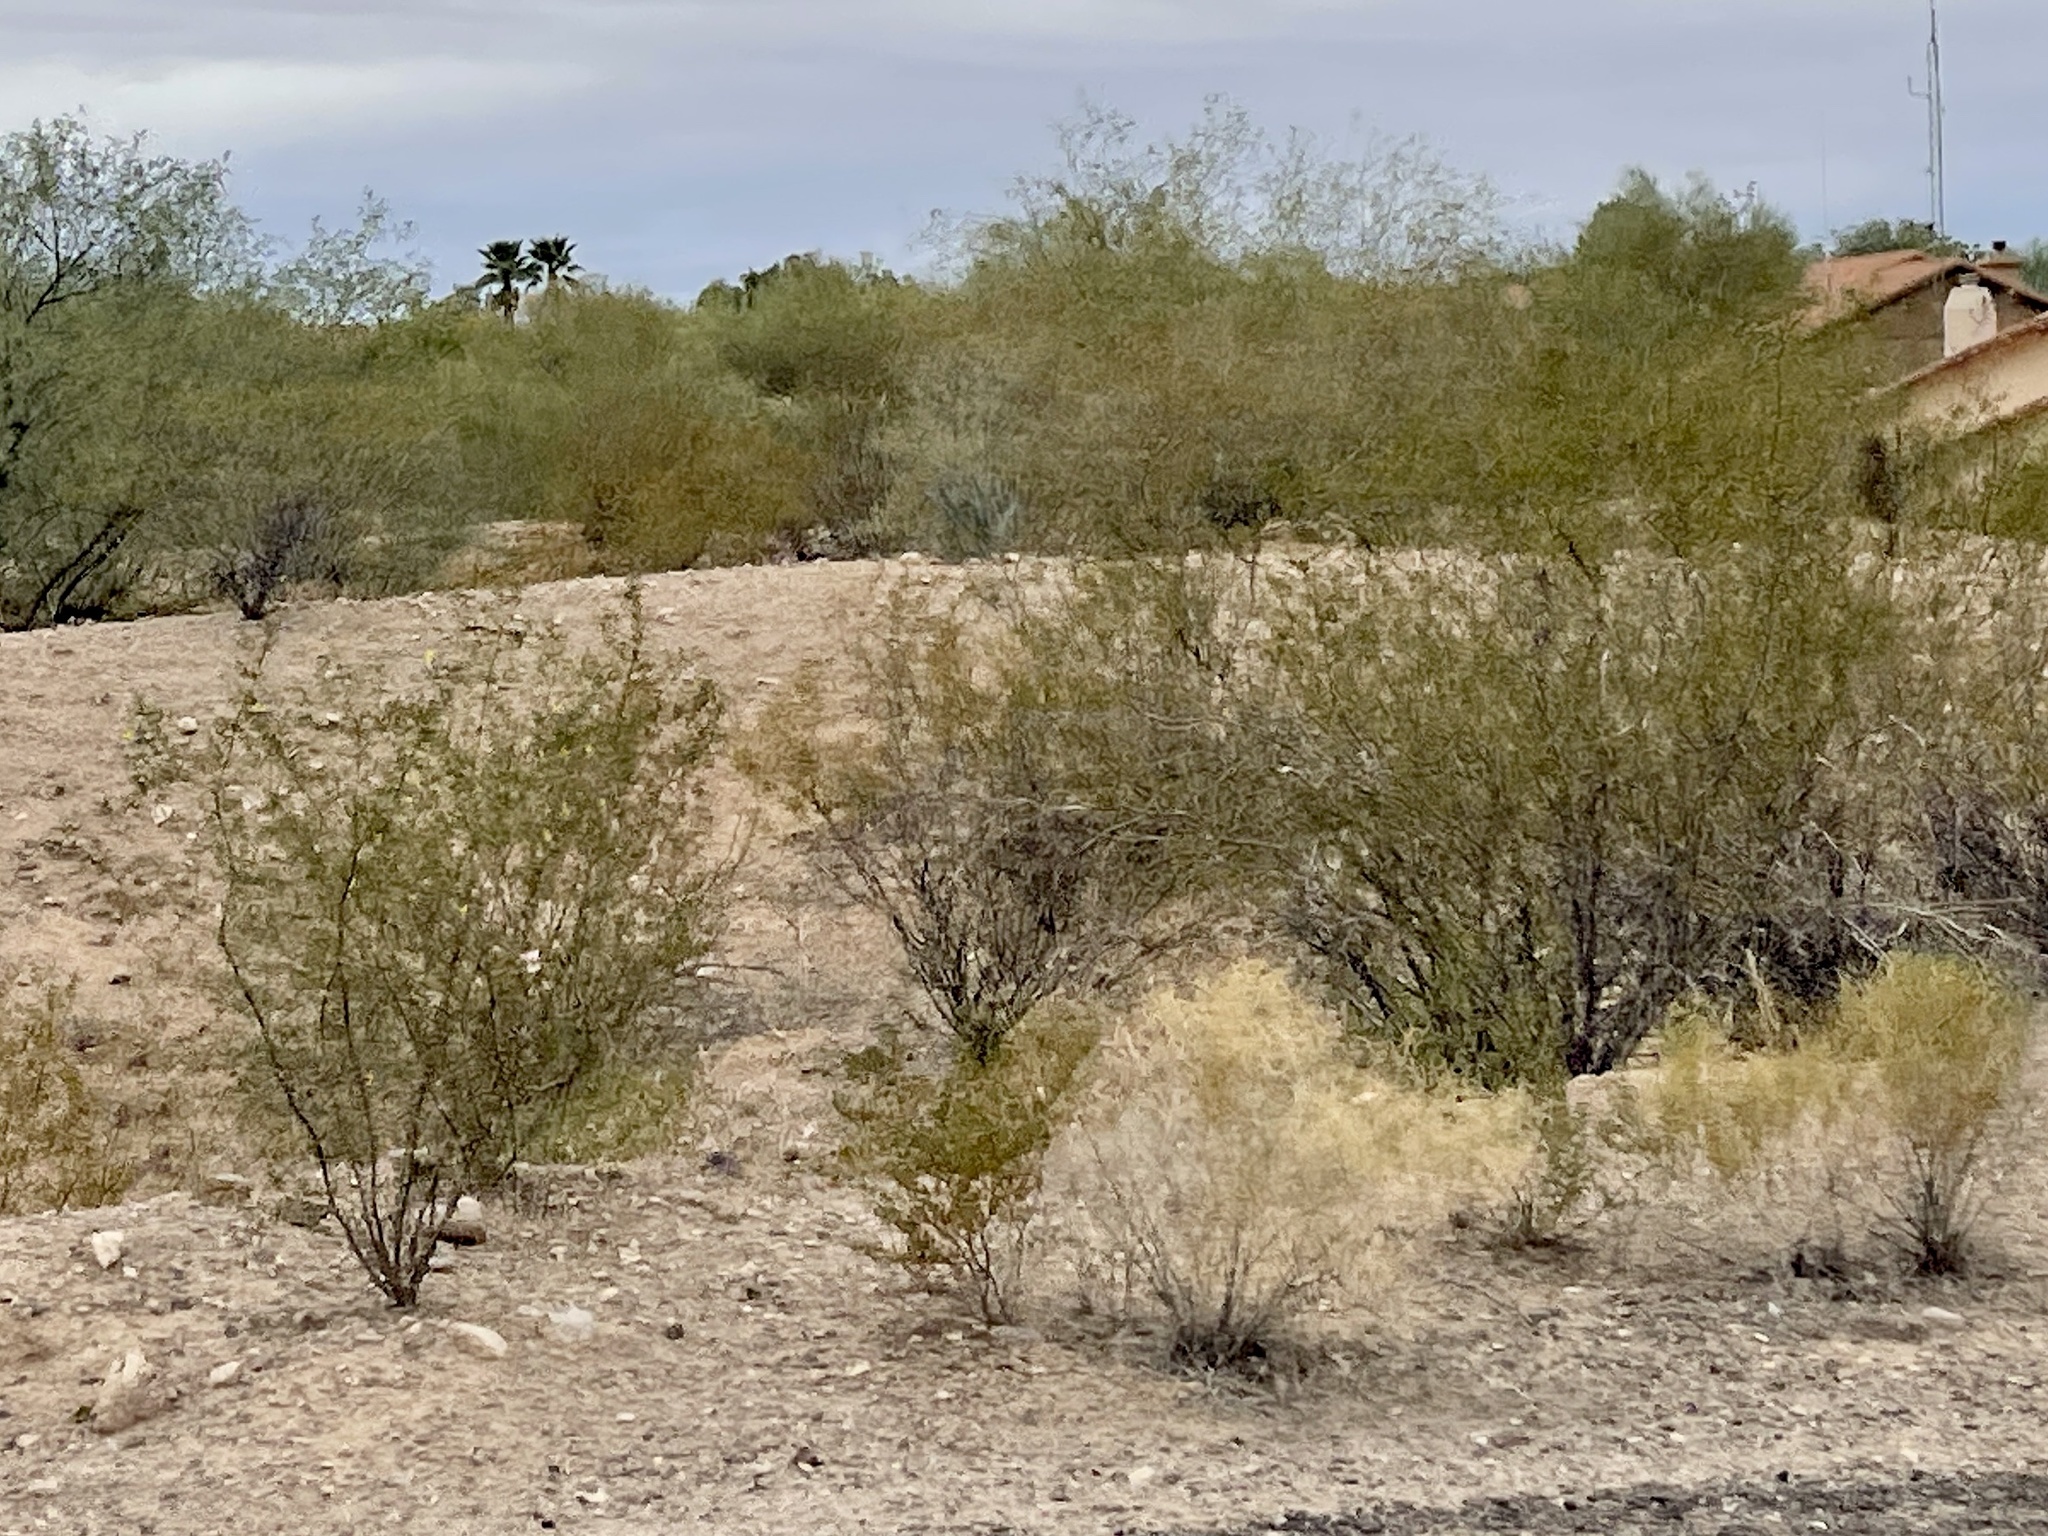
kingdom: Plantae
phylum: Tracheophyta
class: Magnoliopsida
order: Zygophyllales
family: Zygophyllaceae
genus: Larrea
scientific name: Larrea tridentata
